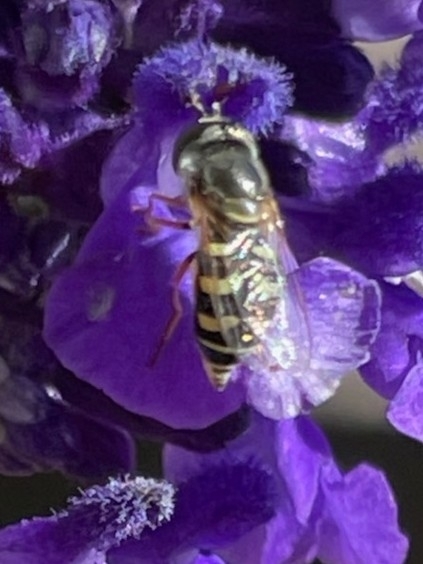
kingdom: Animalia
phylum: Arthropoda
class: Insecta
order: Diptera
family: Syrphidae
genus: Eupeodes
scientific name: Eupeodes volucris
